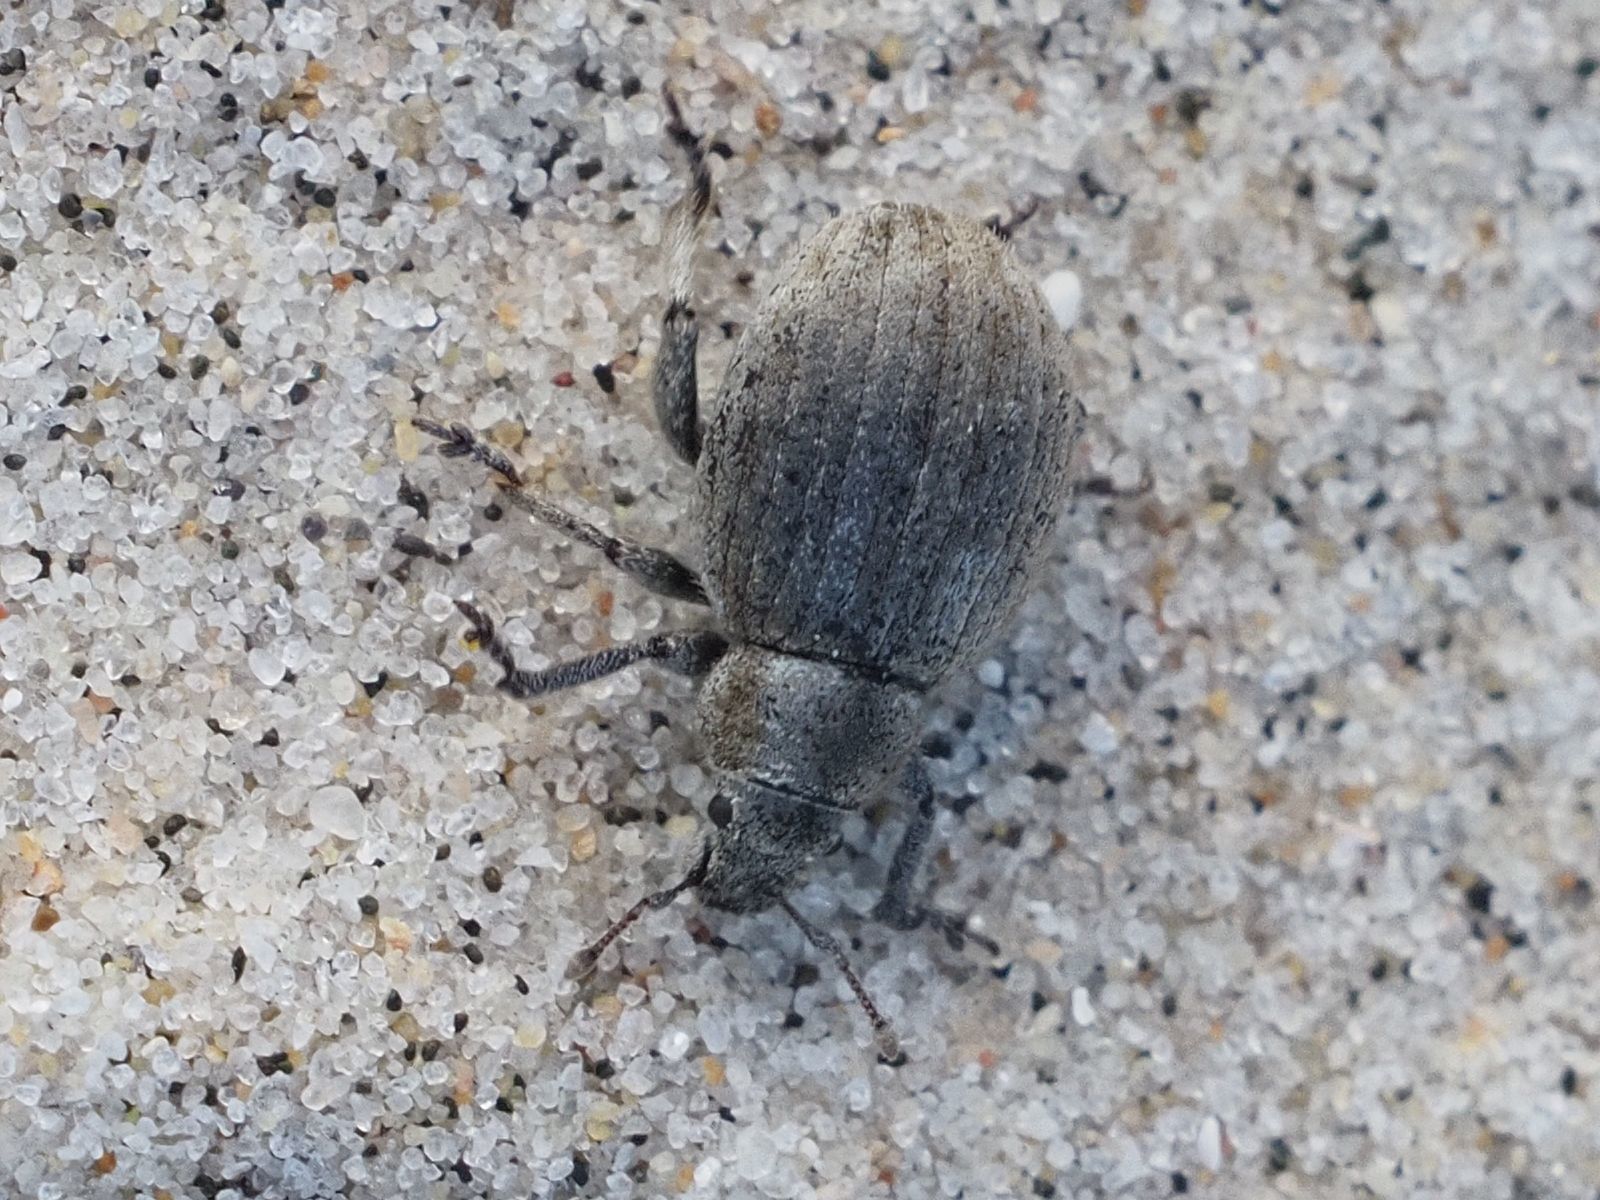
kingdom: Animalia
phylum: Arthropoda
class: Insecta
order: Coleoptera
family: Curculionidae
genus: Philopedon
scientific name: Philopedon plagiatum
